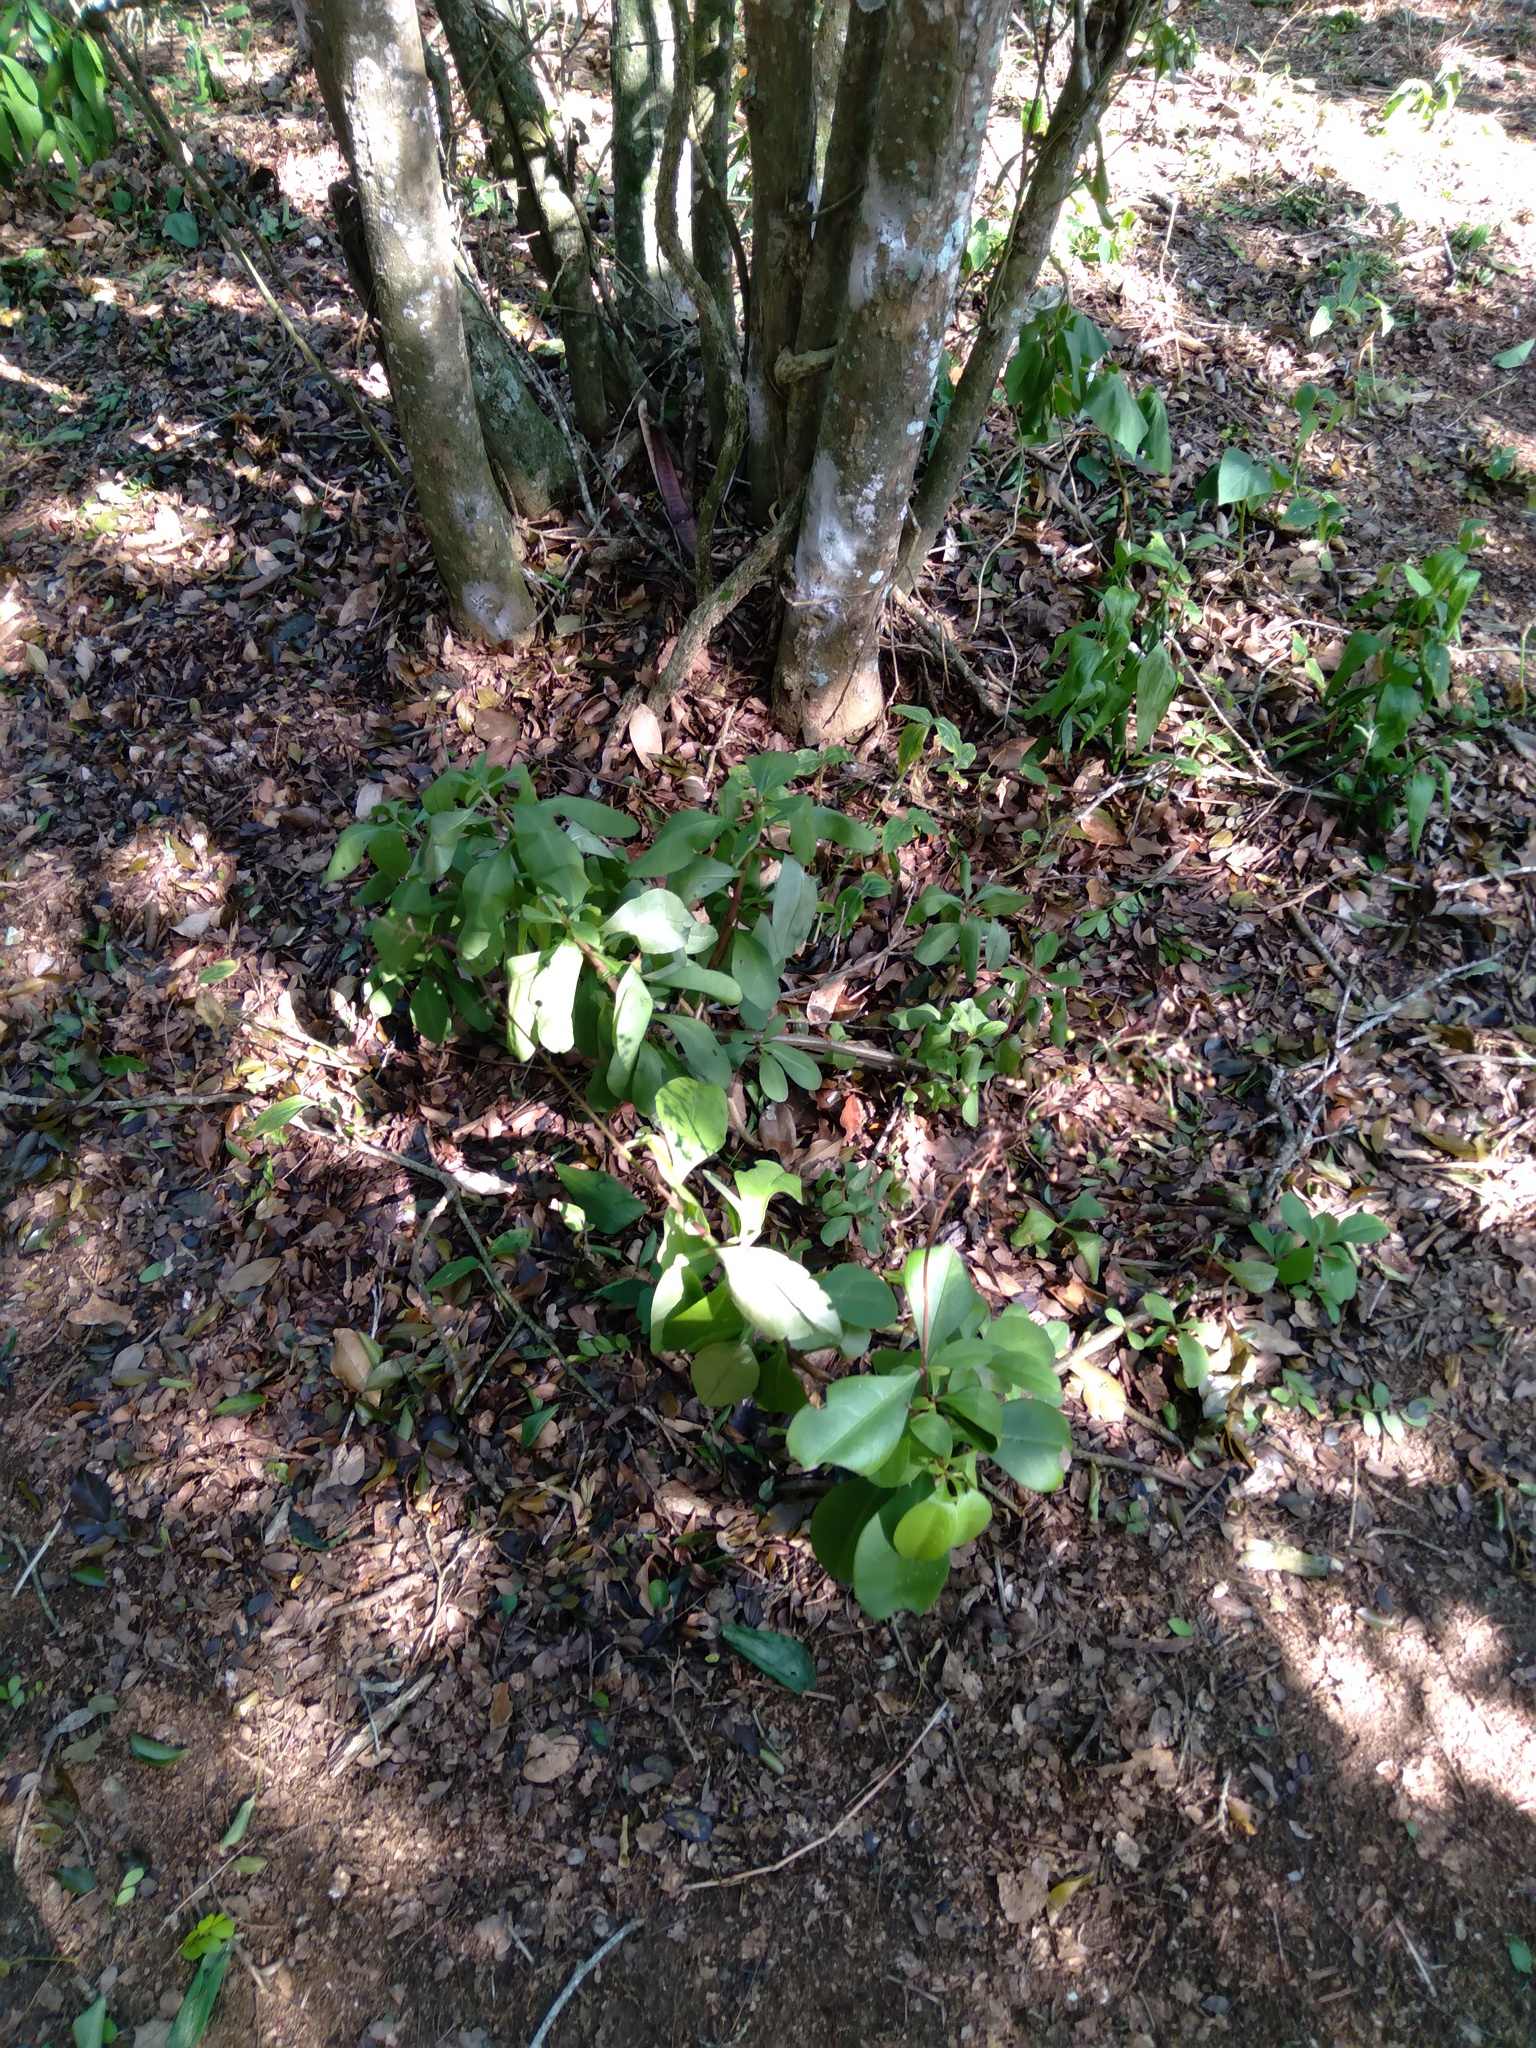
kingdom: Plantae
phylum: Tracheophyta
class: Magnoliopsida
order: Caryophyllales
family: Talinaceae
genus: Talinum
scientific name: Talinum paniculatum
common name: Jewels of opar
